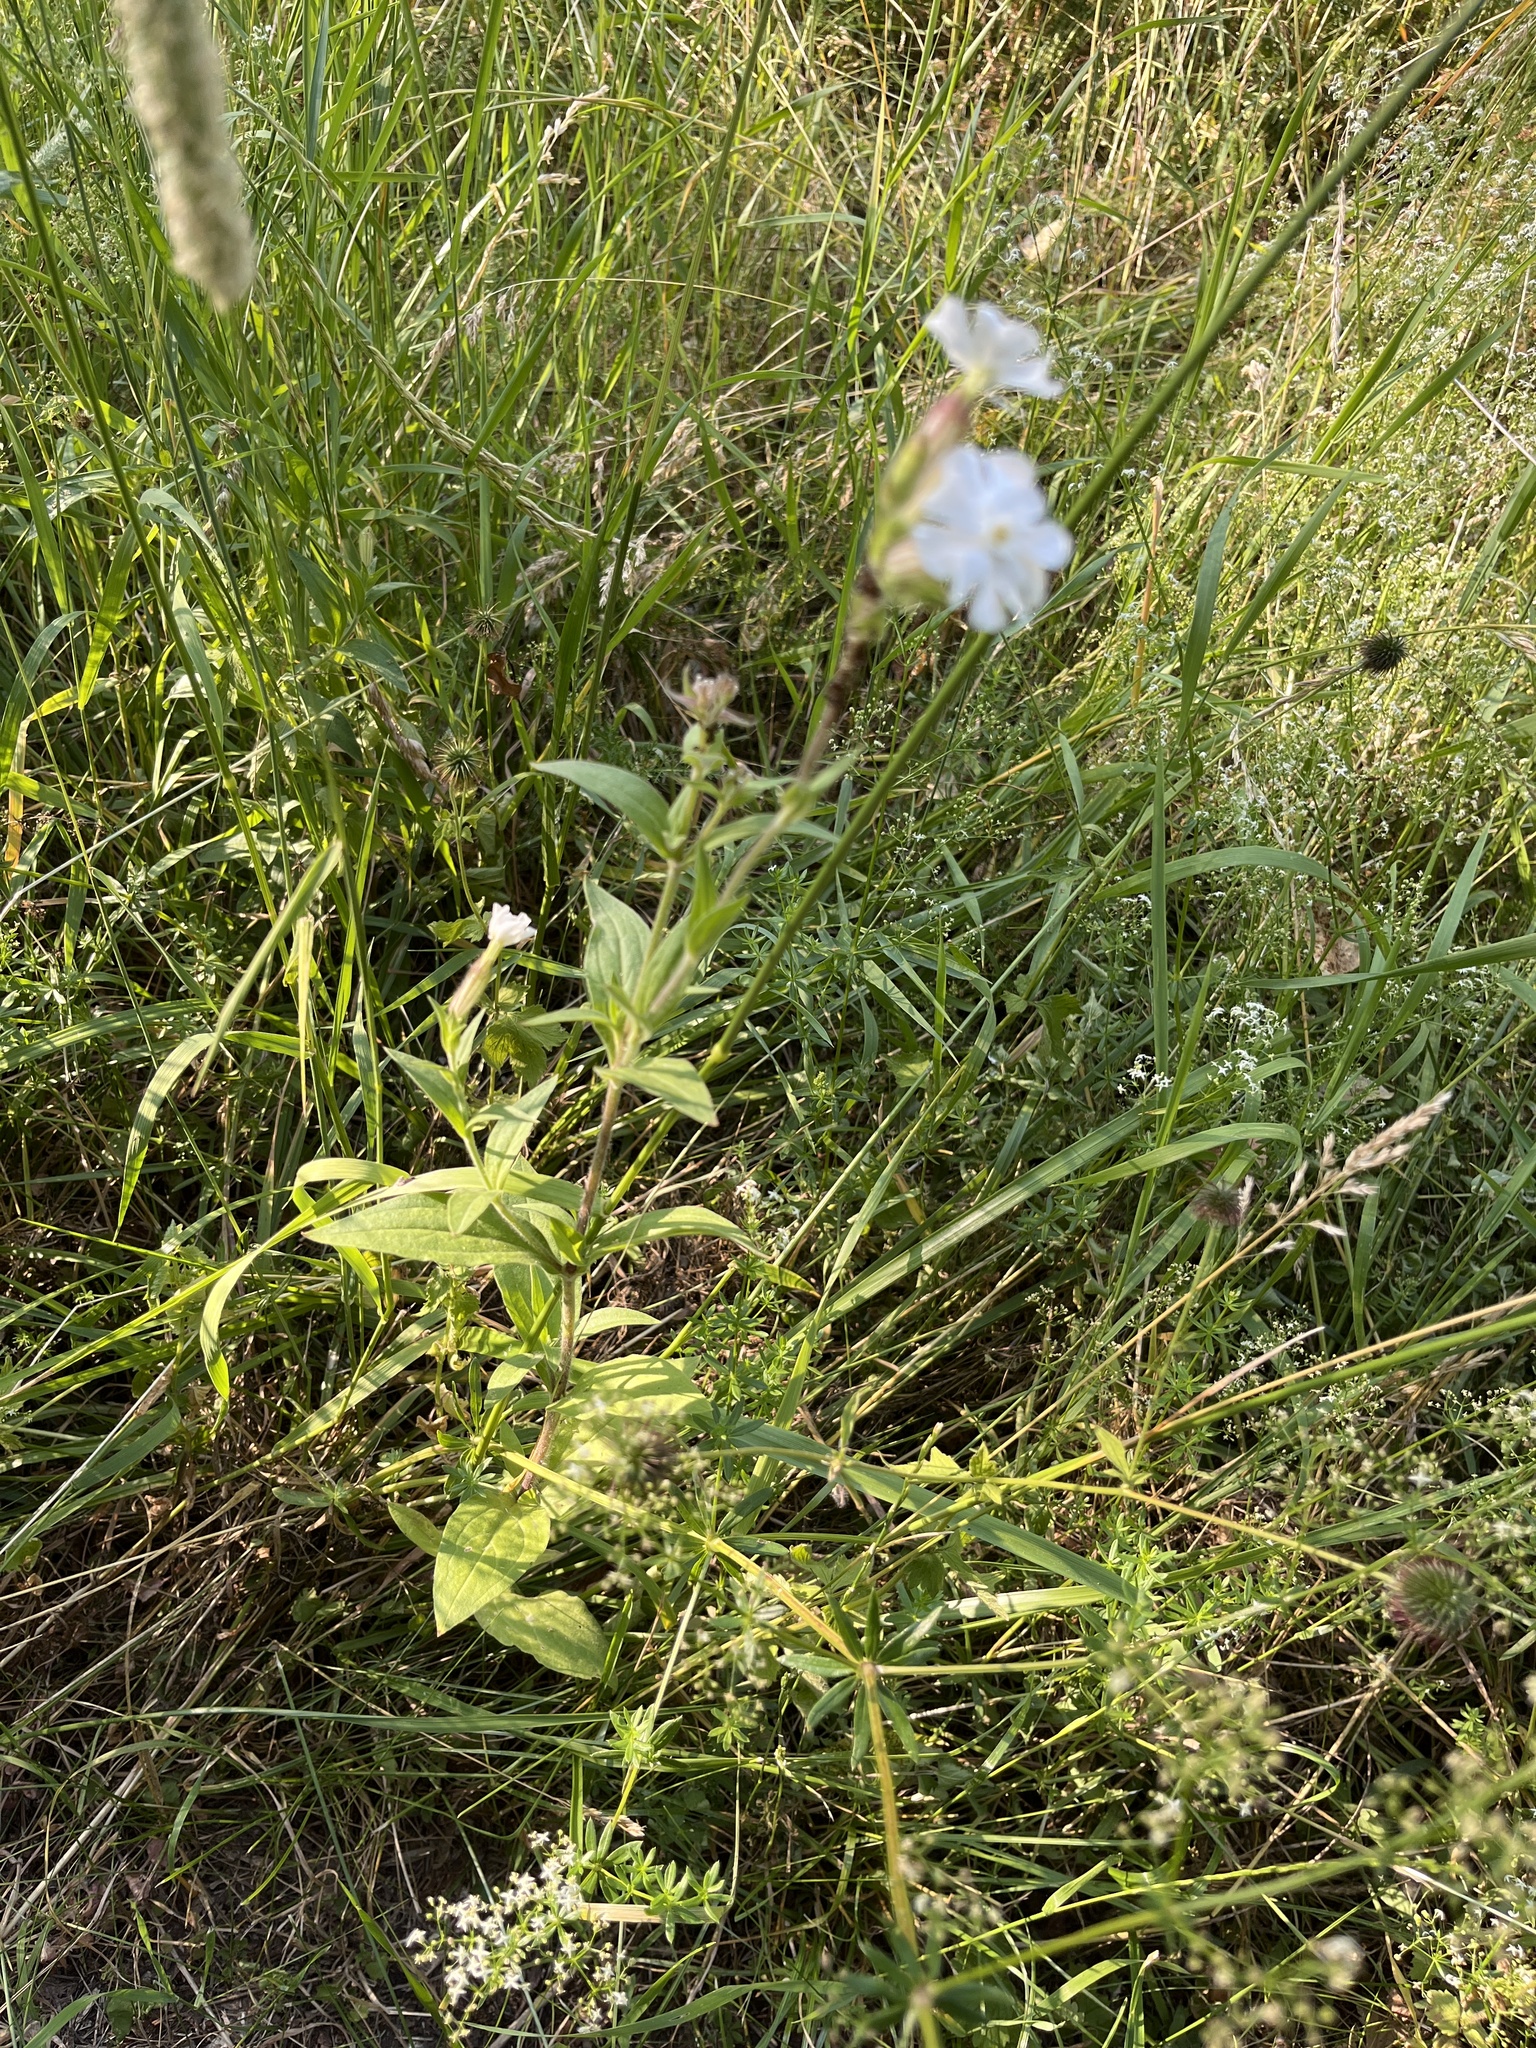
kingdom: Plantae
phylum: Tracheophyta
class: Magnoliopsida
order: Caryophyllales
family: Caryophyllaceae
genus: Silene
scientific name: Silene latifolia
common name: White campion
